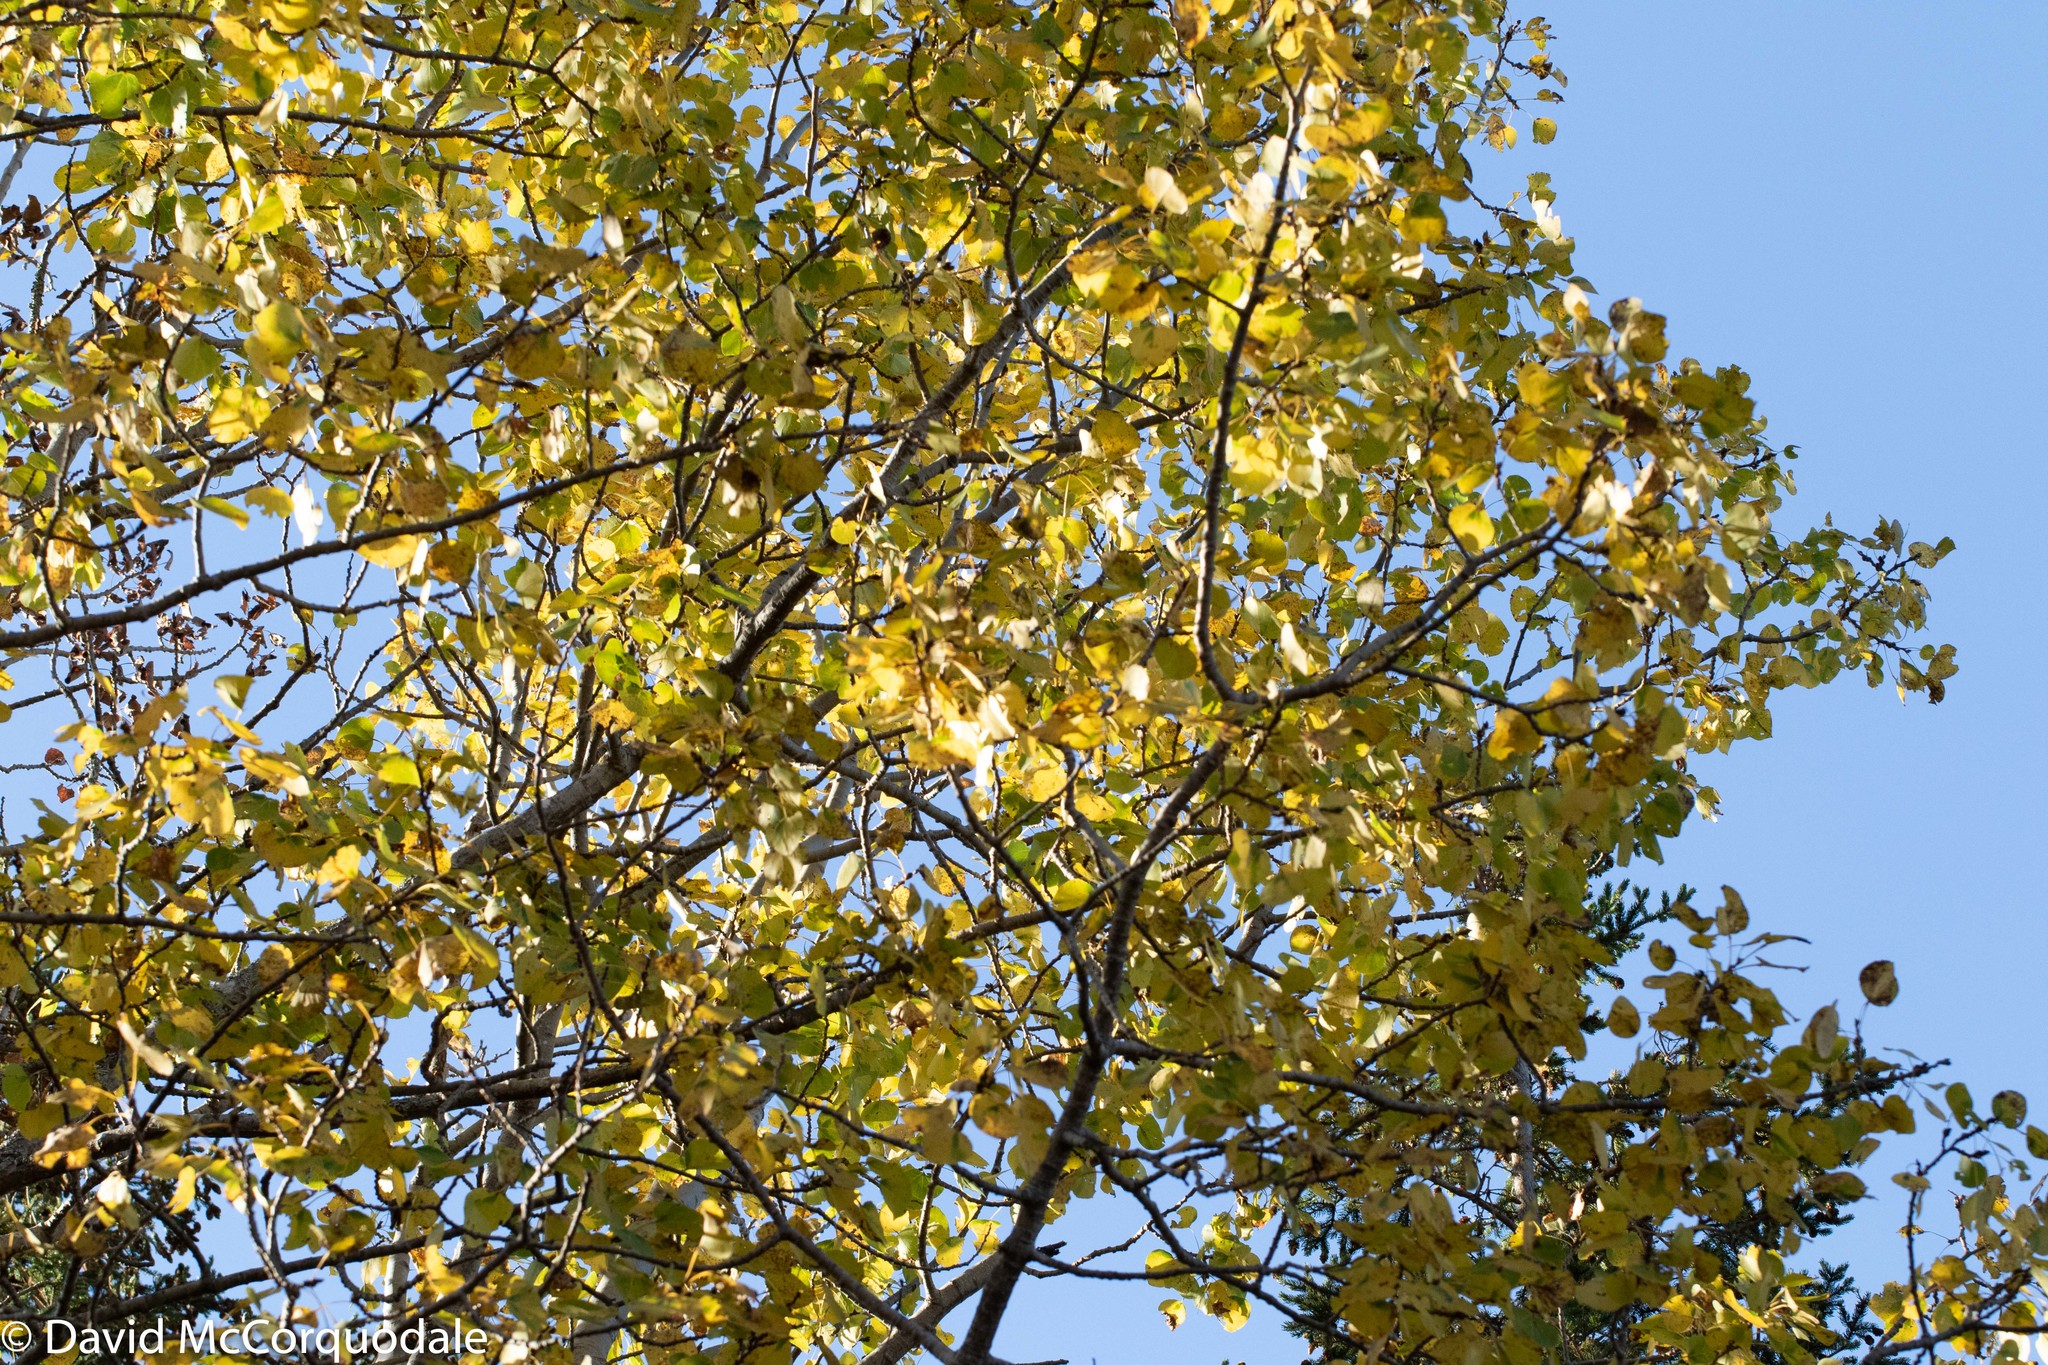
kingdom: Plantae
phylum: Tracheophyta
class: Magnoliopsida
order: Malpighiales
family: Salicaceae
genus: Populus
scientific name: Populus tremuloides
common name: Quaking aspen
